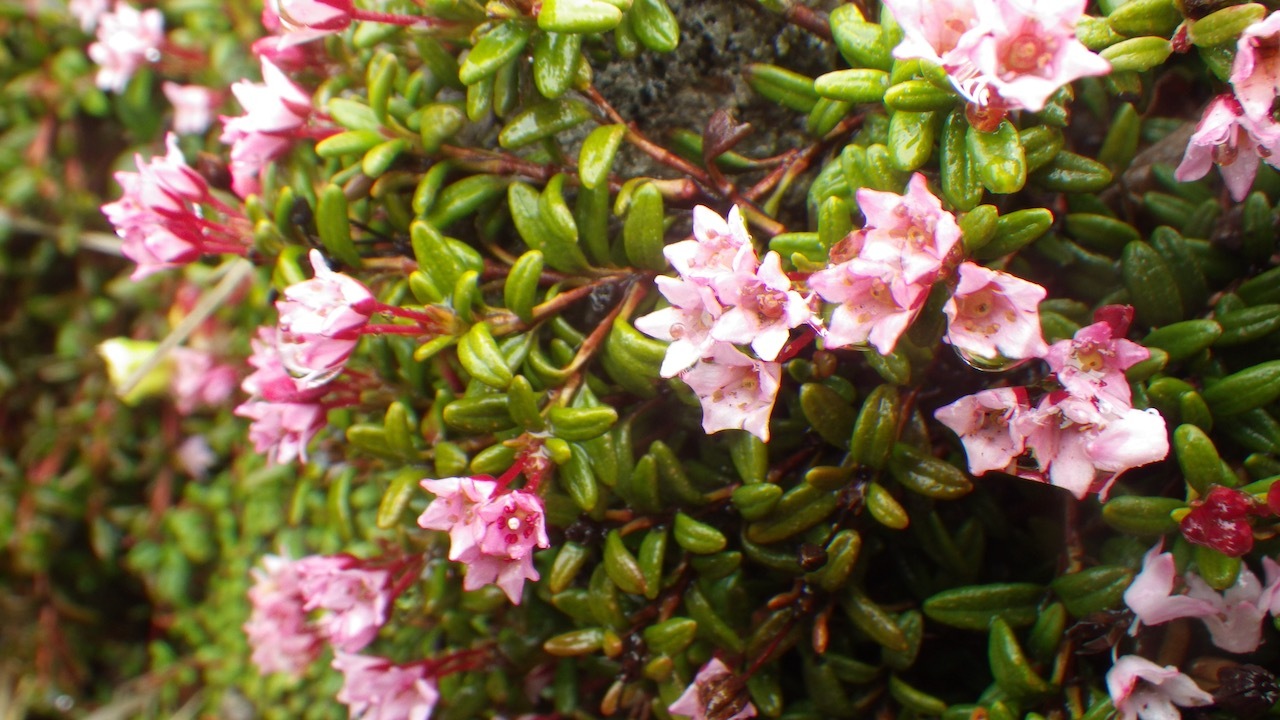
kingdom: Plantae
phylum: Tracheophyta
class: Magnoliopsida
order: Ericales
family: Ericaceae
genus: Kalmia
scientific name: Kalmia procumbens
